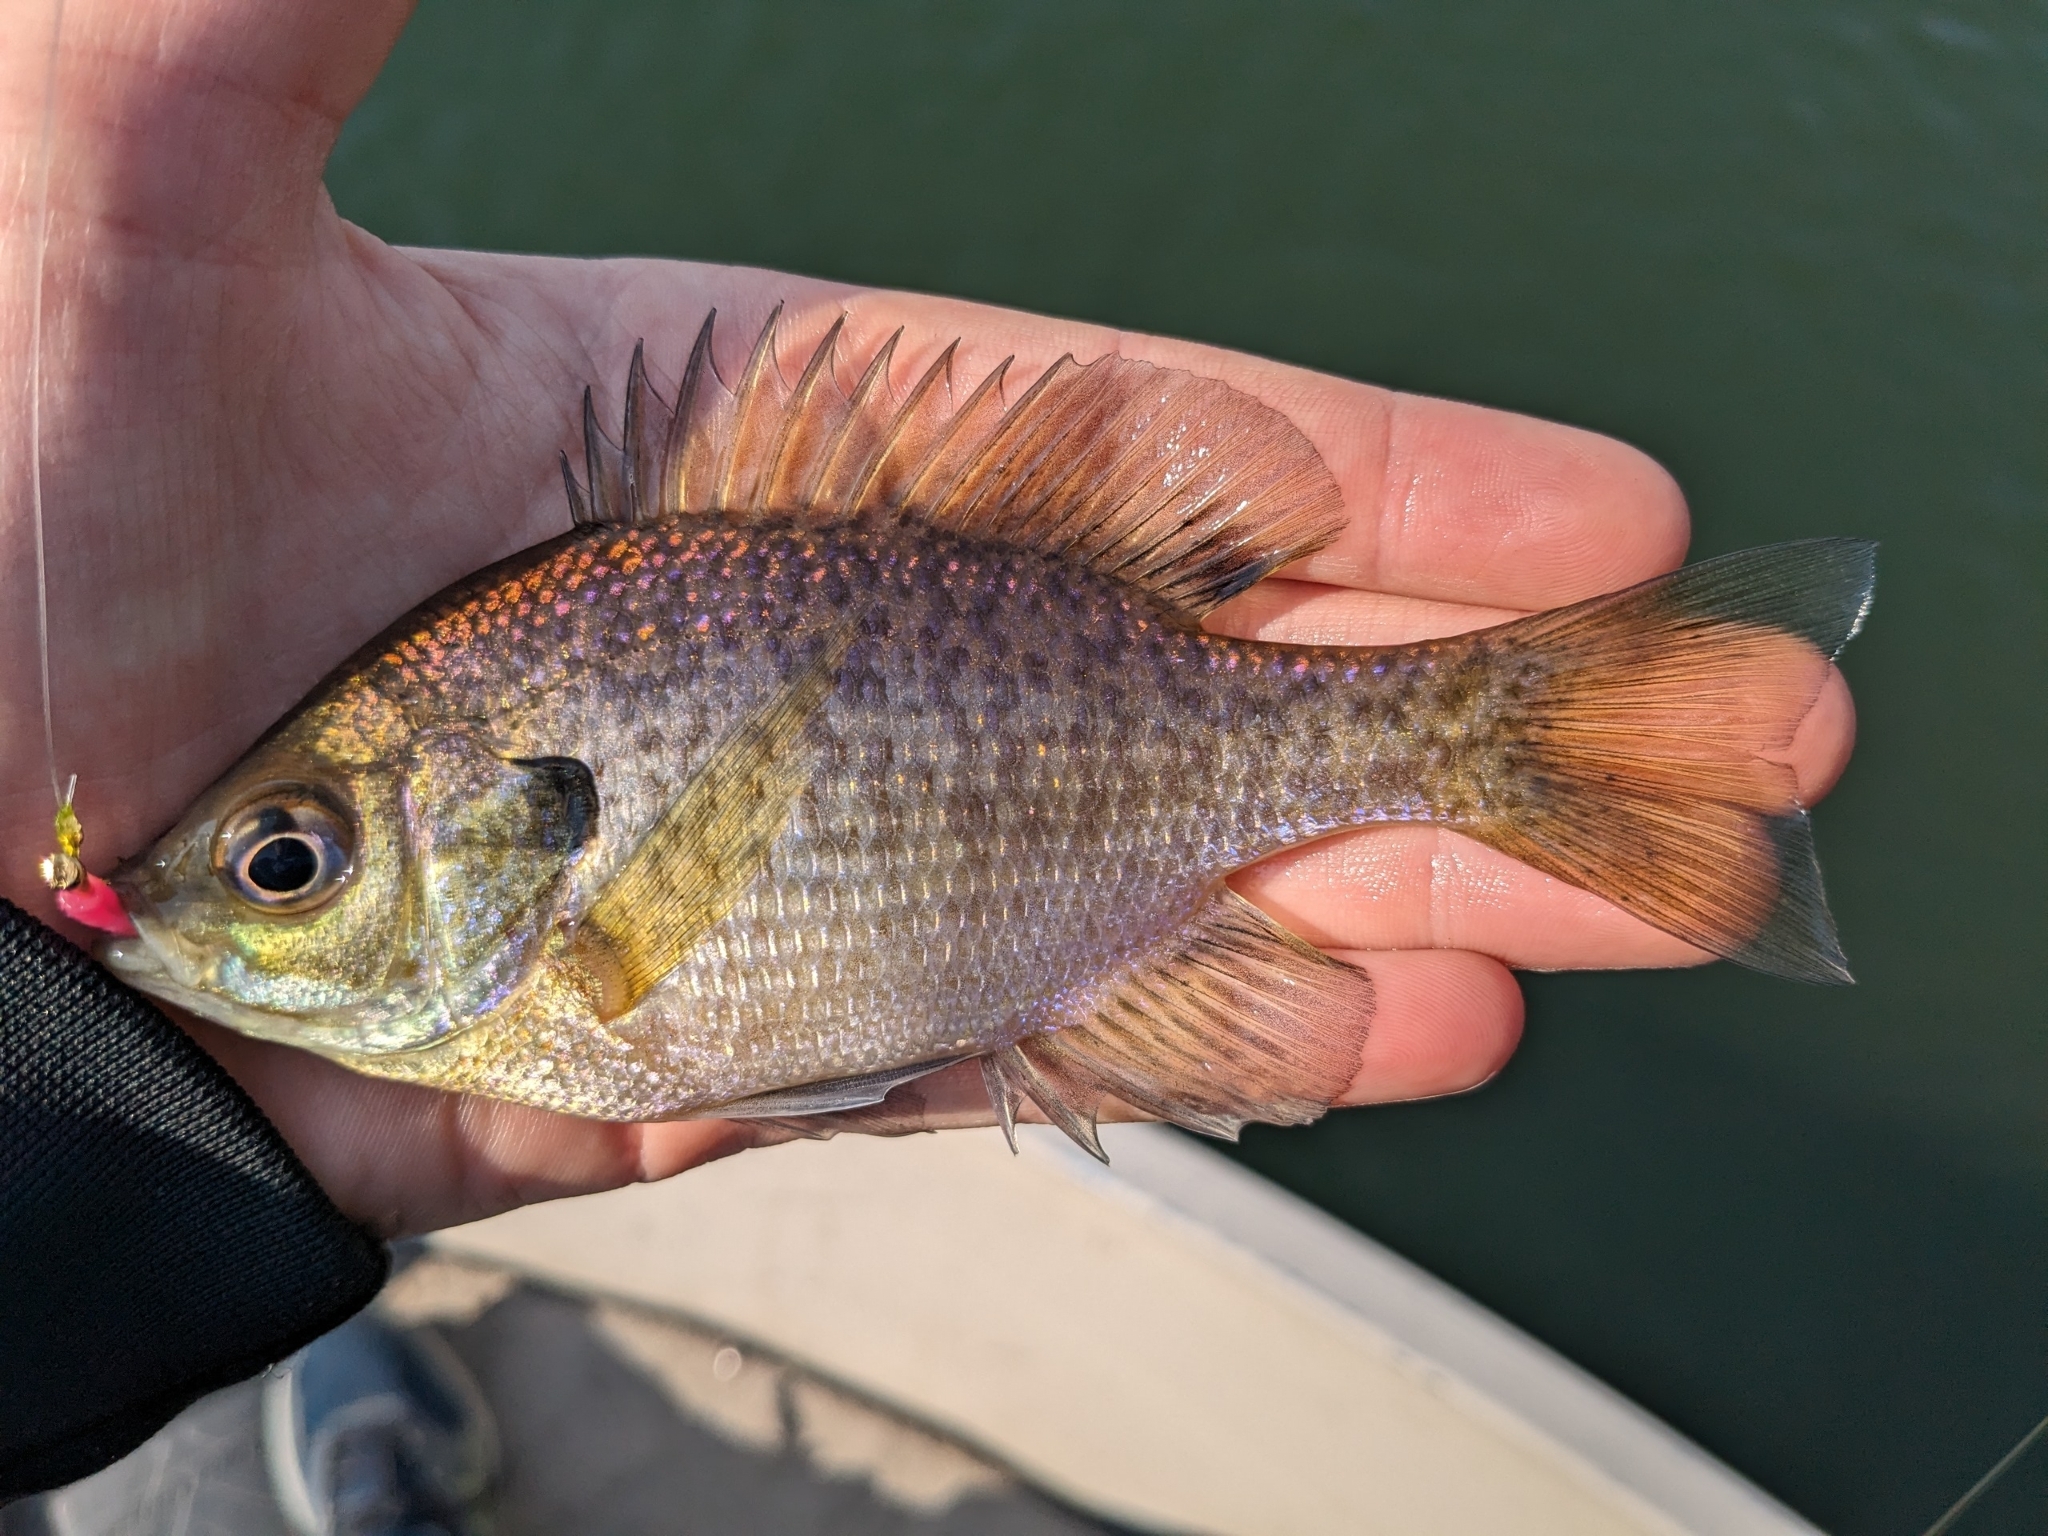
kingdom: Animalia
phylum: Chordata
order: Perciformes
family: Centrarchidae
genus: Lepomis
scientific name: Lepomis macrochirus
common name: Bluegill
